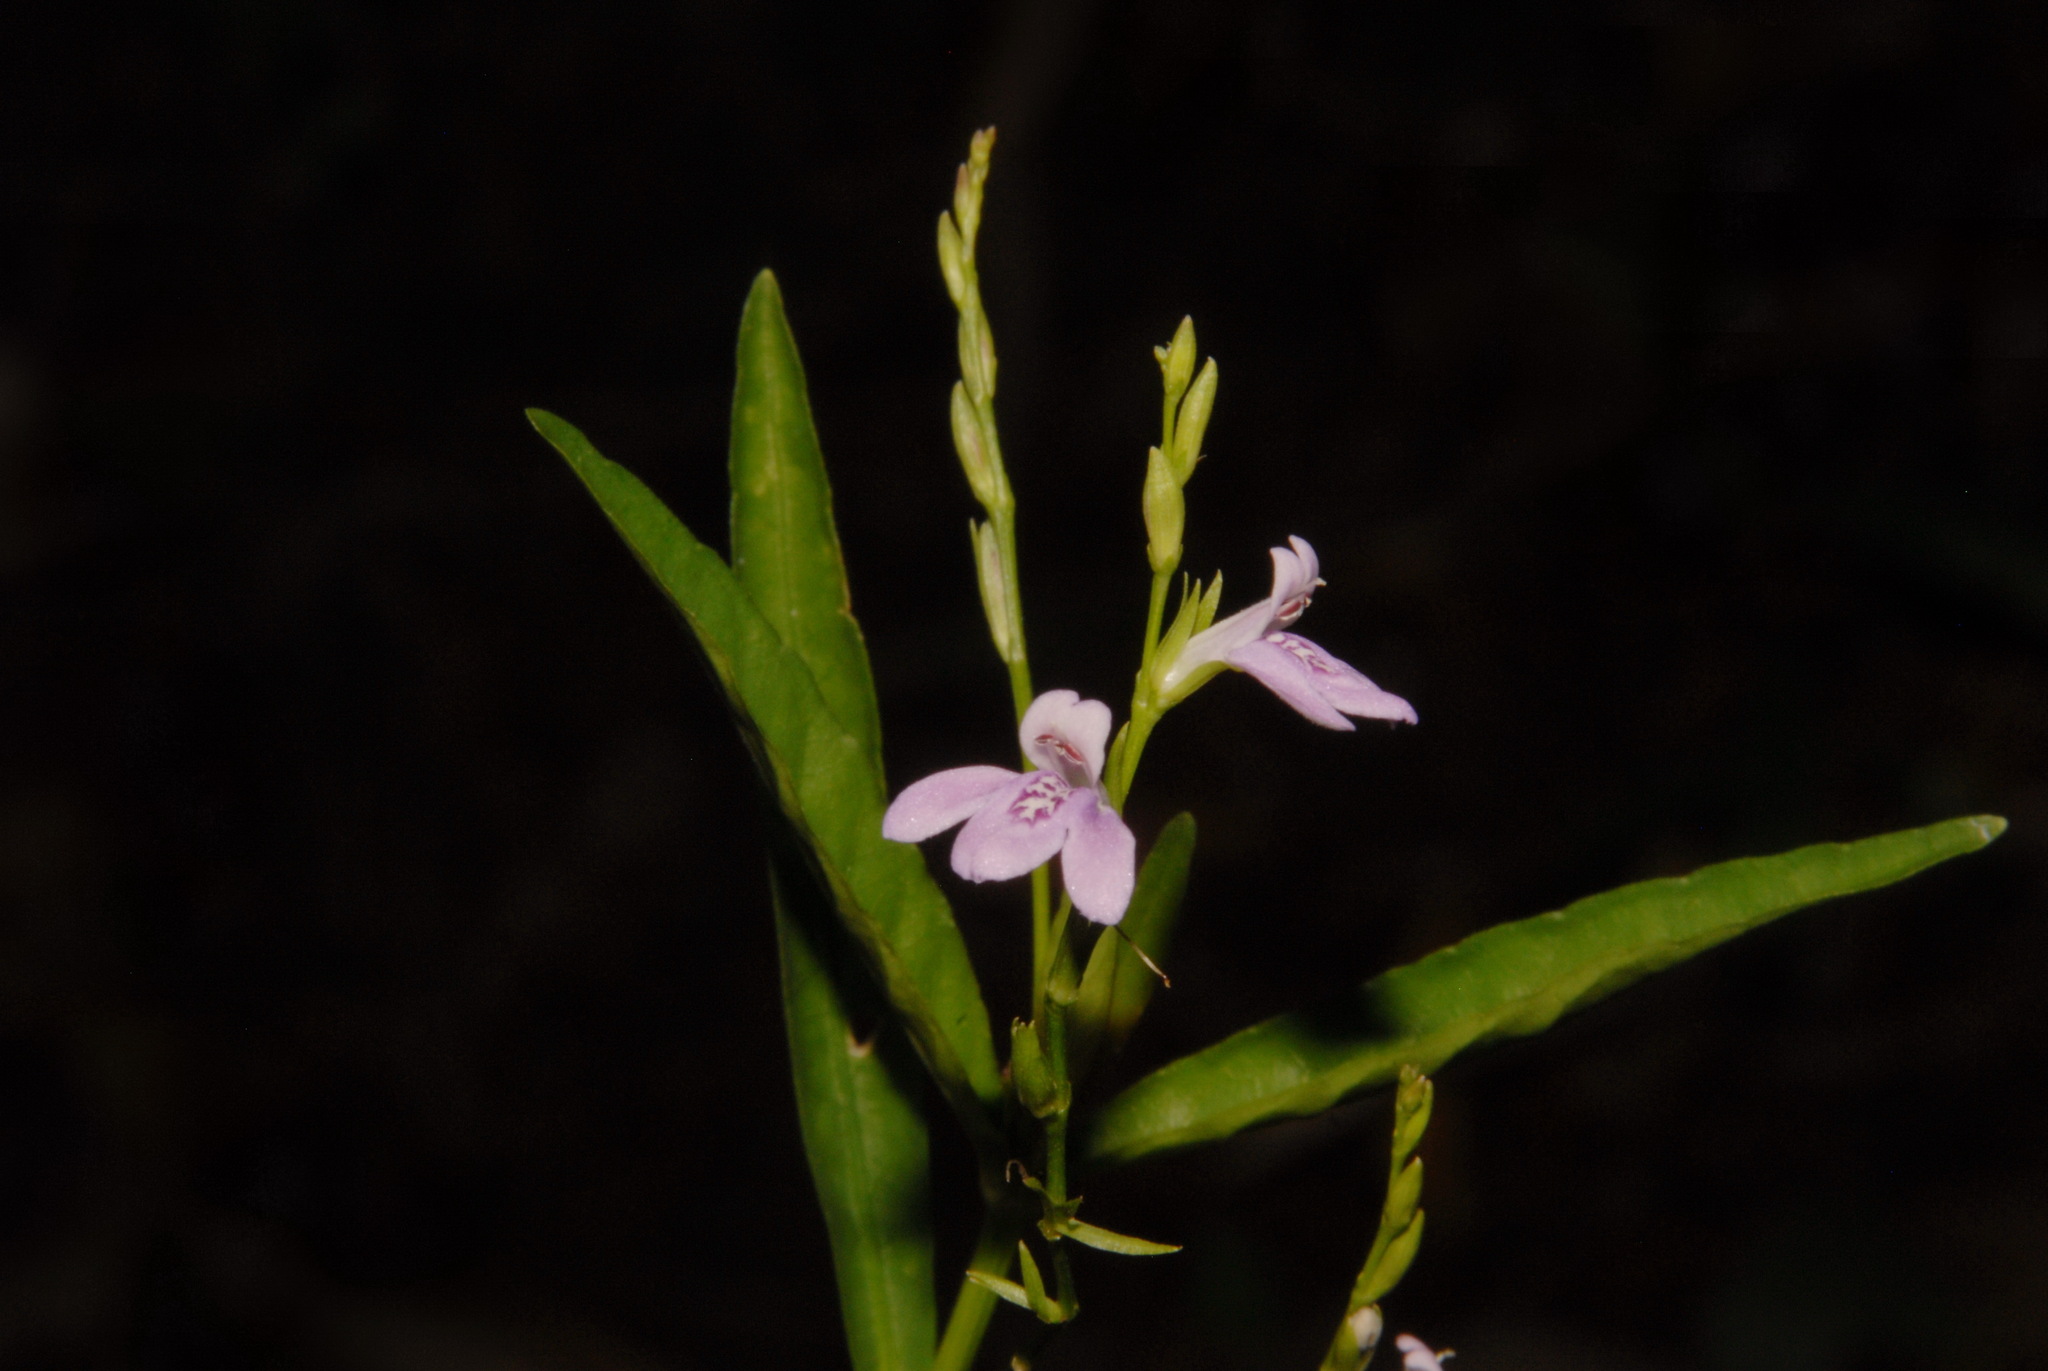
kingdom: Plantae
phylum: Tracheophyta
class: Magnoliopsida
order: Lamiales
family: Acanthaceae
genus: Justicia
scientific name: Justicia lanceolata
